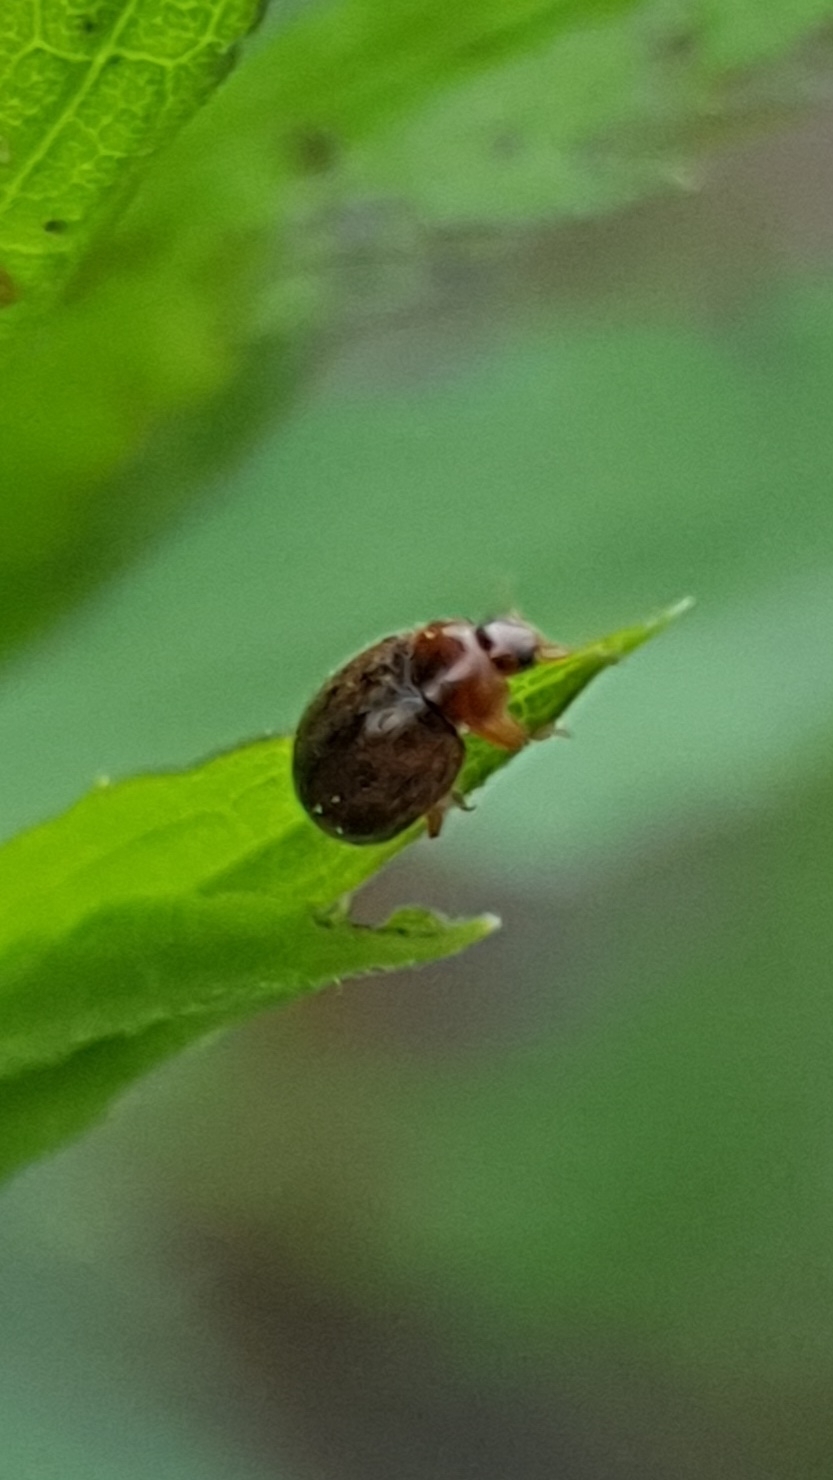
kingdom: Animalia
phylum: Arthropoda
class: Insecta
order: Coleoptera
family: Coccinellidae
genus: Rhyzobius
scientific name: Rhyzobius chrysomeloides
